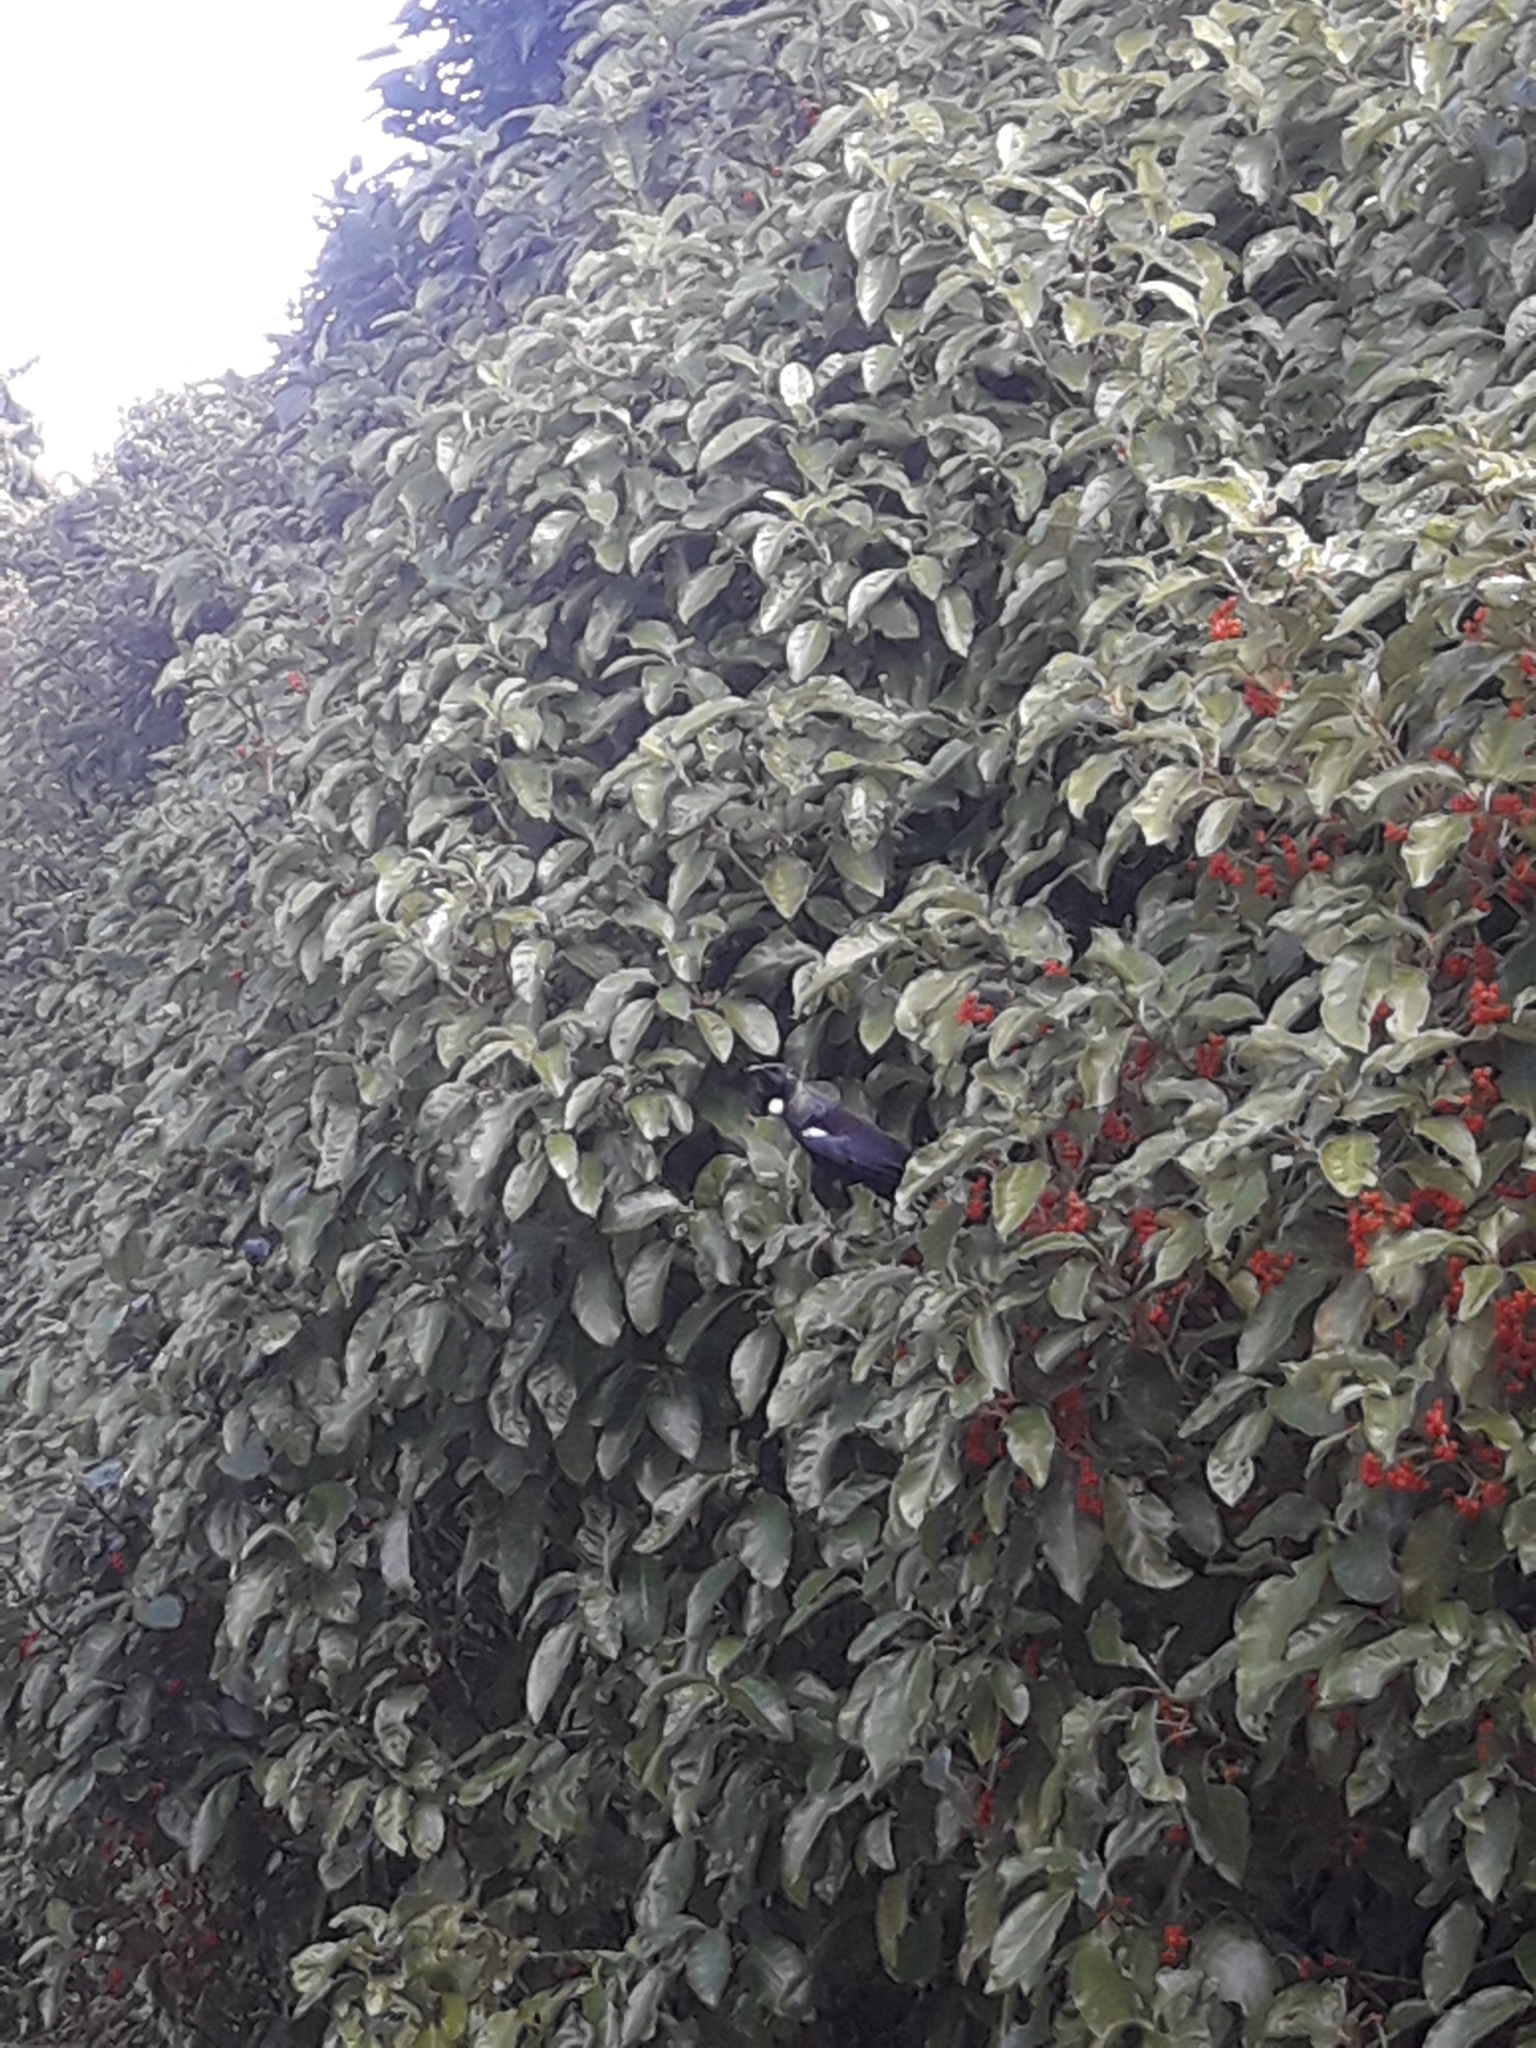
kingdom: Animalia
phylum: Chordata
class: Aves
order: Passeriformes
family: Meliphagidae
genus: Prosthemadera
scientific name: Prosthemadera novaeseelandiae
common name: Tui
